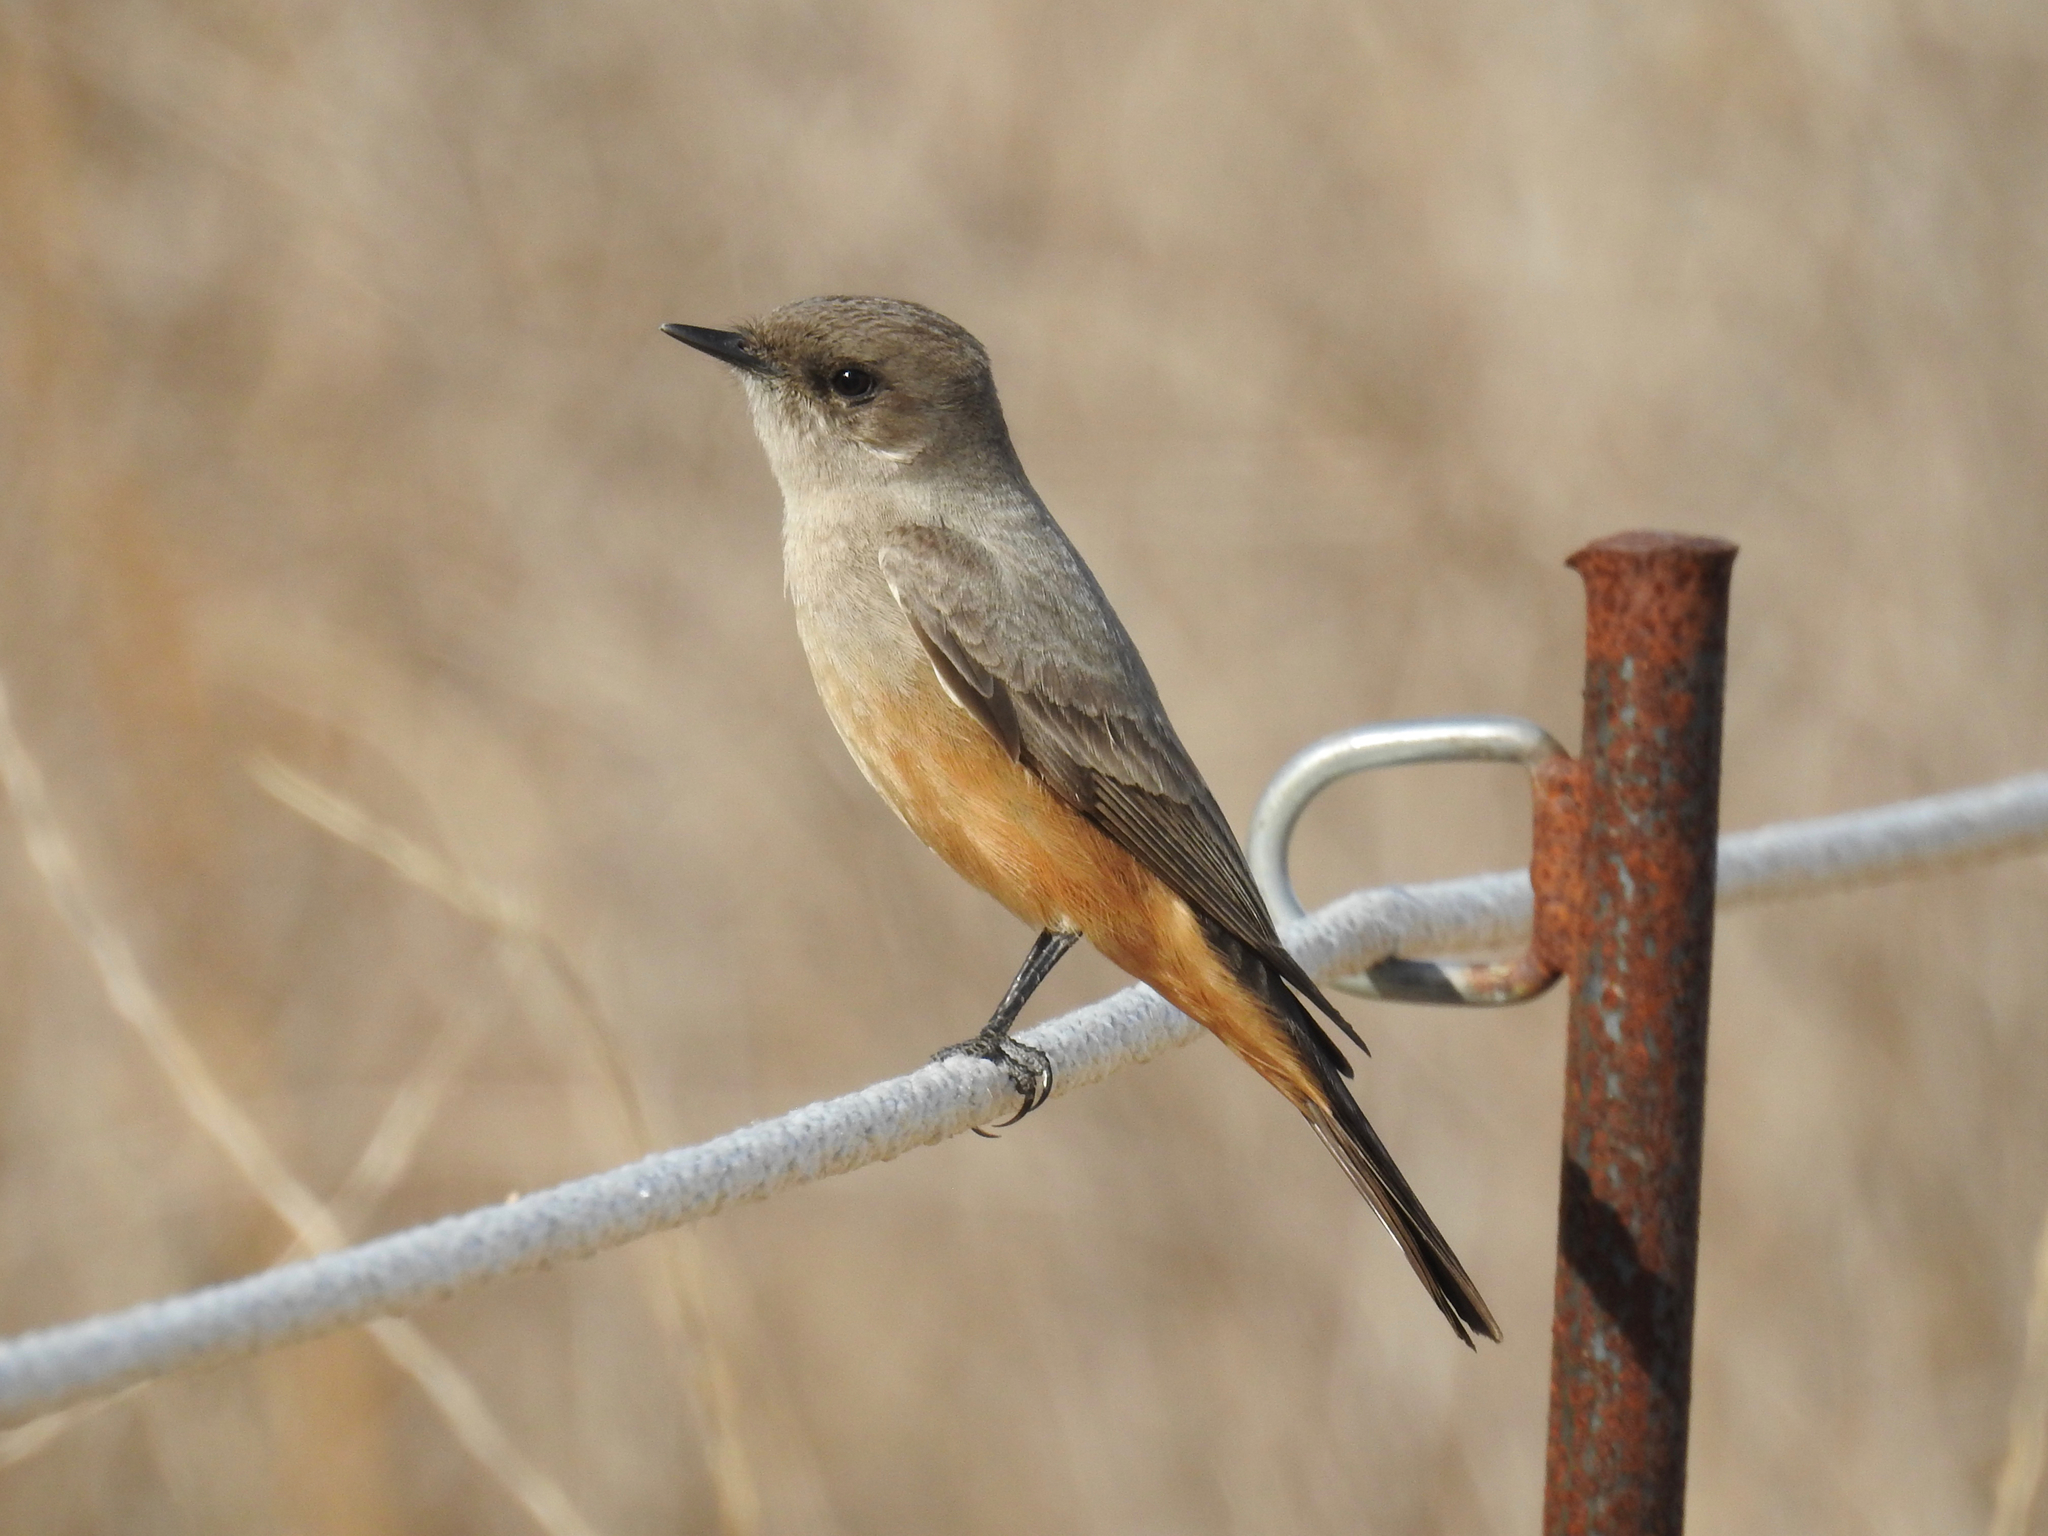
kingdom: Animalia
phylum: Chordata
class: Aves
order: Passeriformes
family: Tyrannidae
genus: Sayornis
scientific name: Sayornis saya
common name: Say's phoebe
